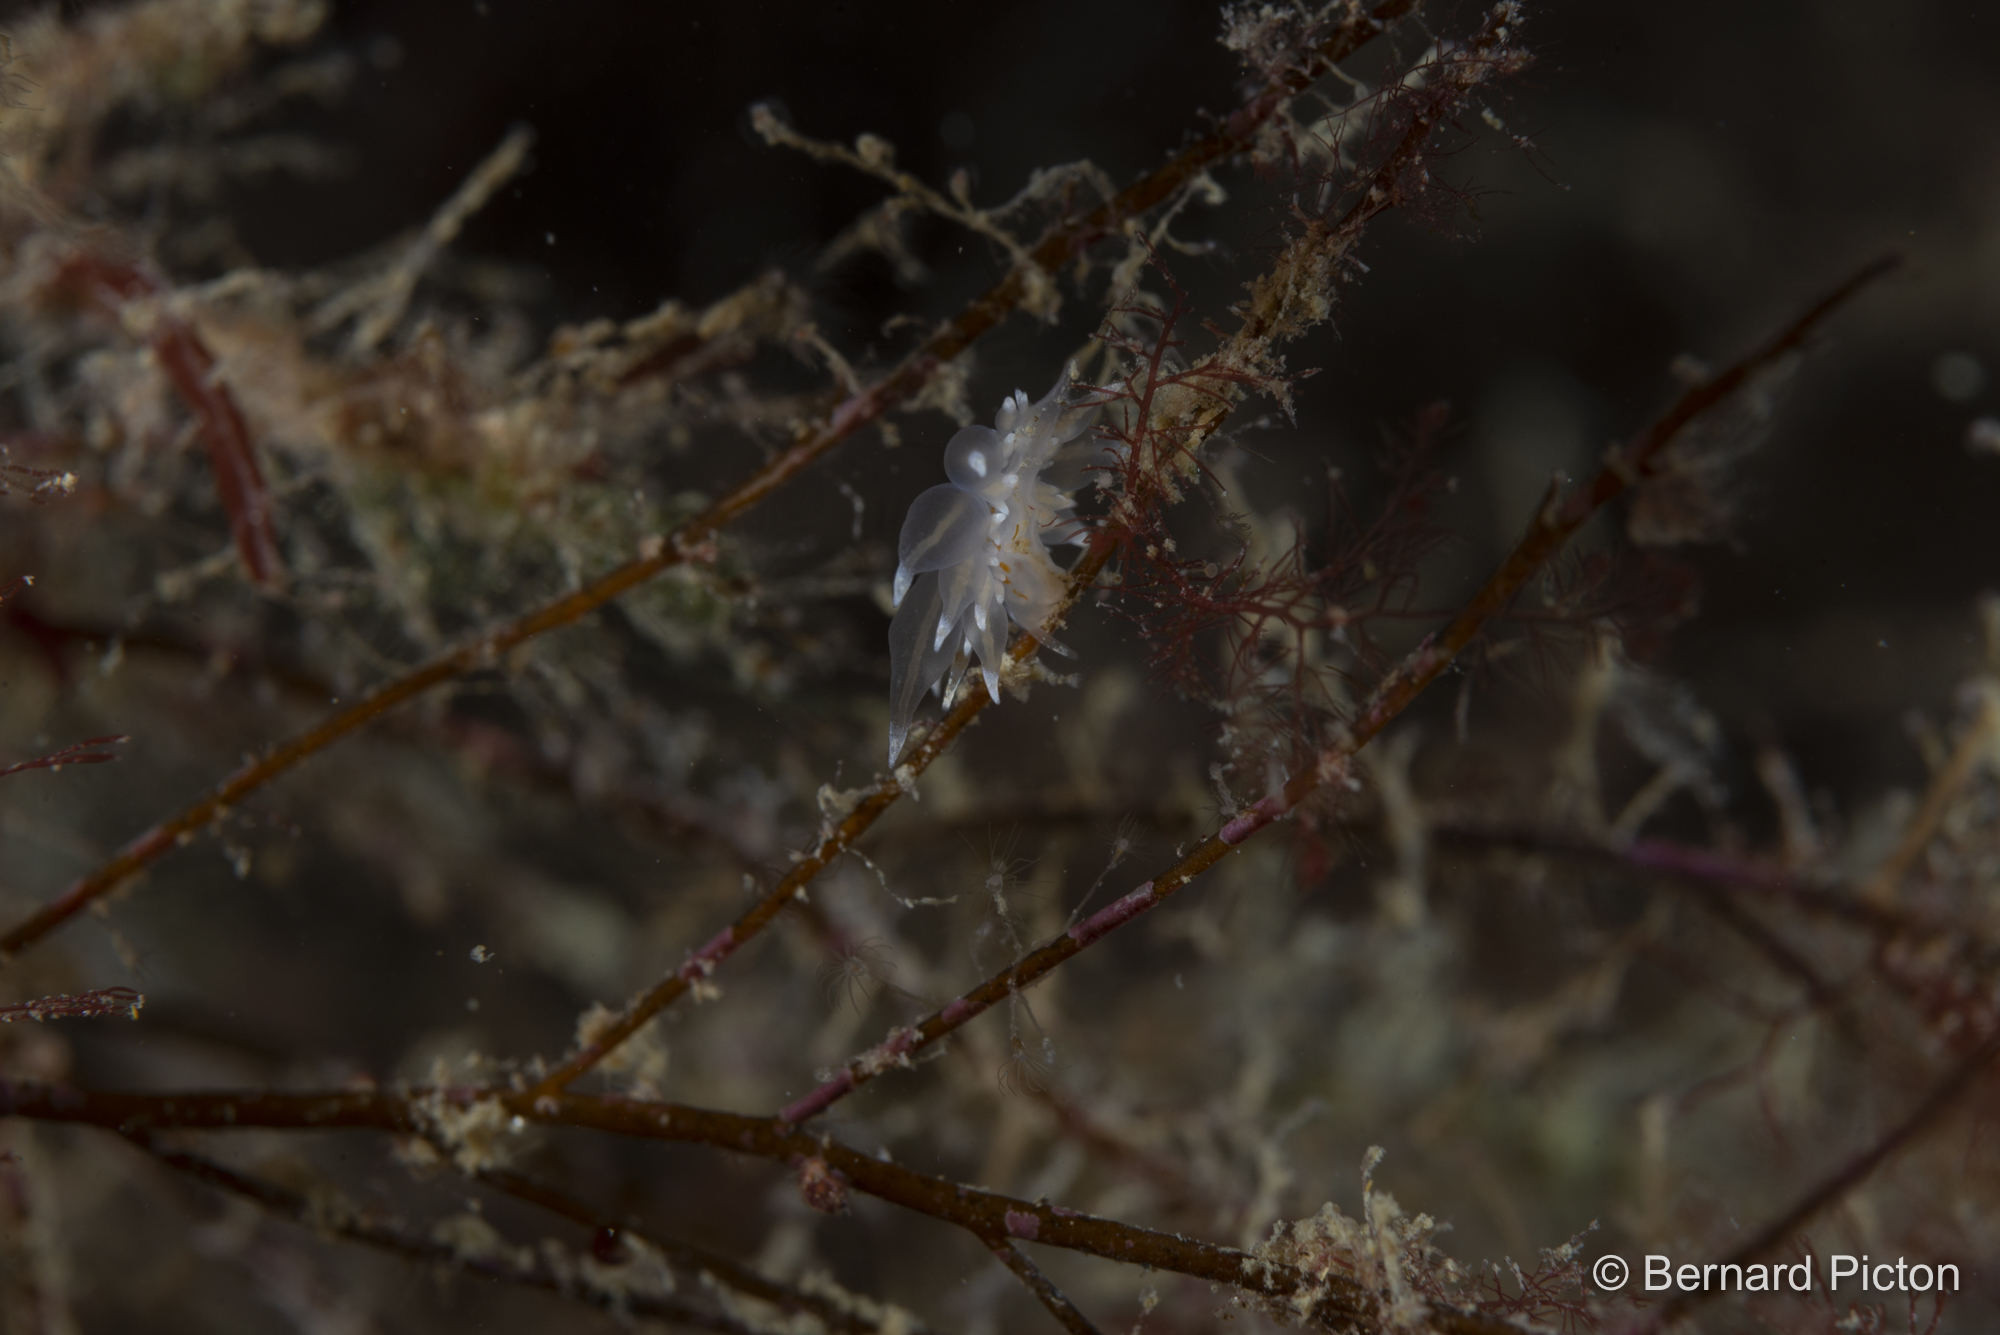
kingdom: Animalia
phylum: Mollusca
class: Gastropoda
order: Nudibranchia
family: Eubranchidae
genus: Amphorina
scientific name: Amphorina linensis
